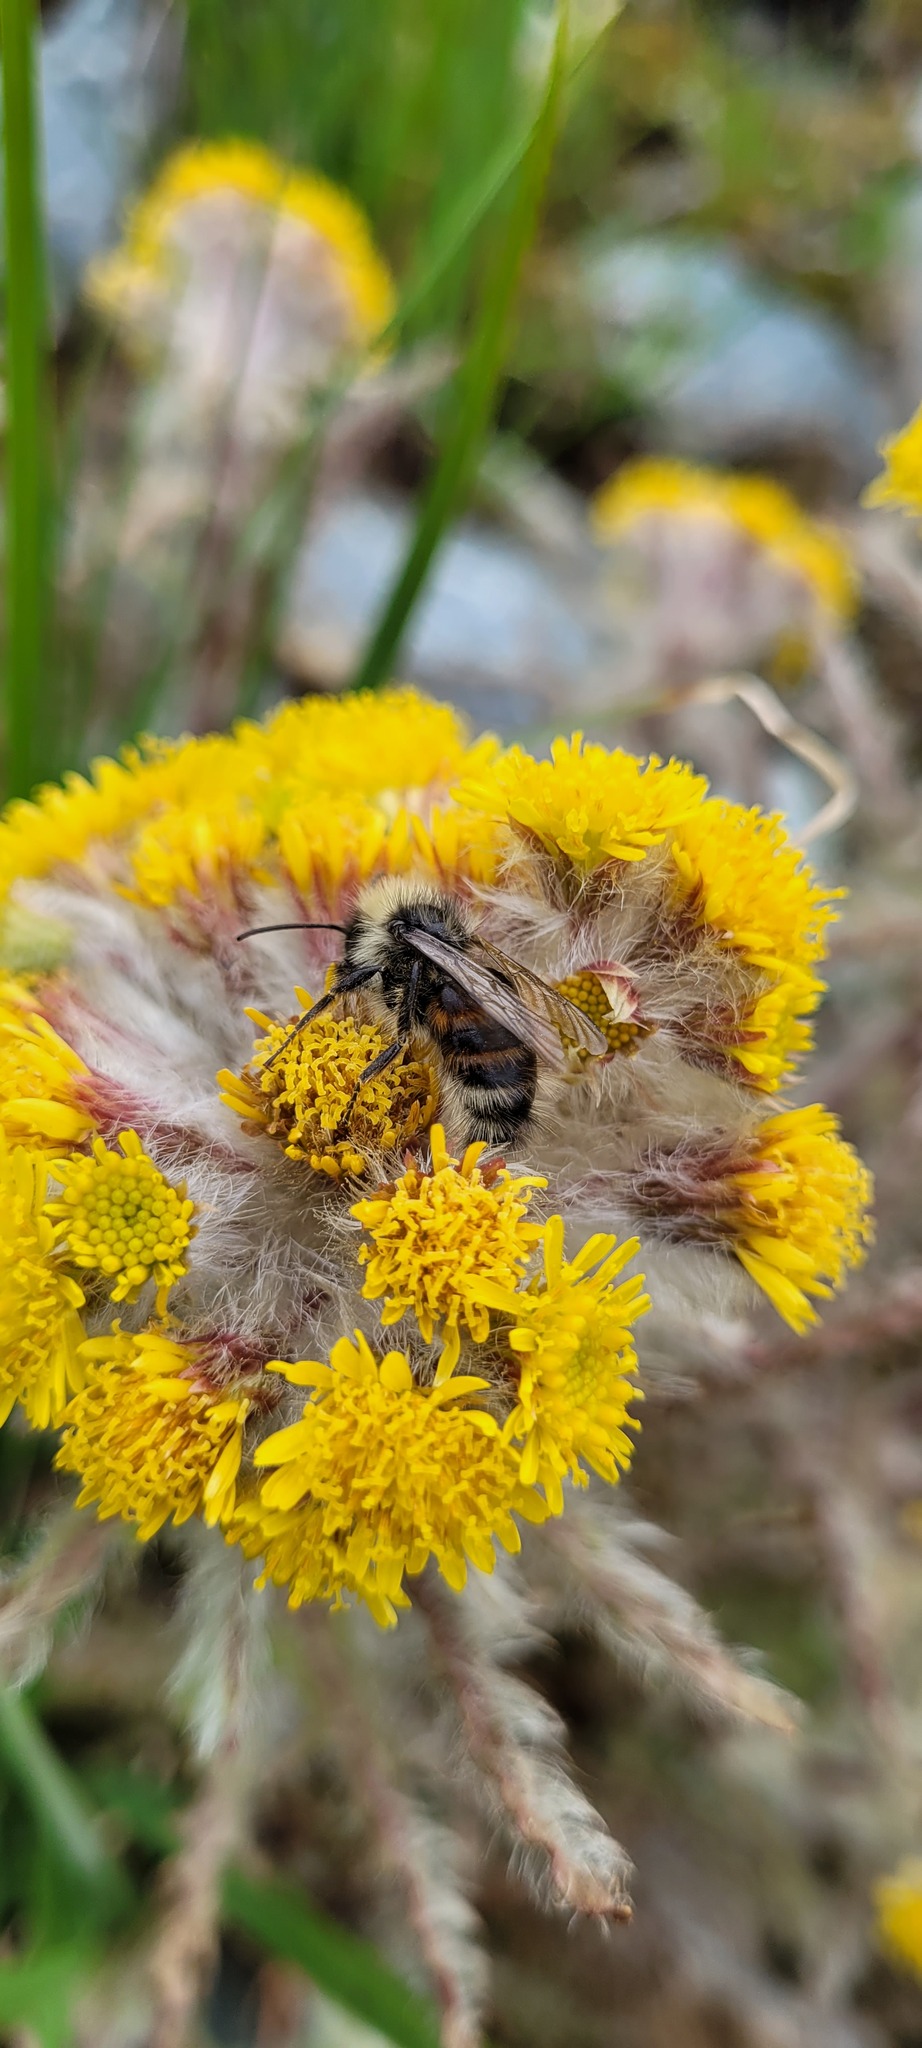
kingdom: Plantae
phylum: Tracheophyta
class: Magnoliopsida
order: Asterales
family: Asteraceae
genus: Tephroseris
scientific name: Tephroseris palustris
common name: Marsh fleawort
